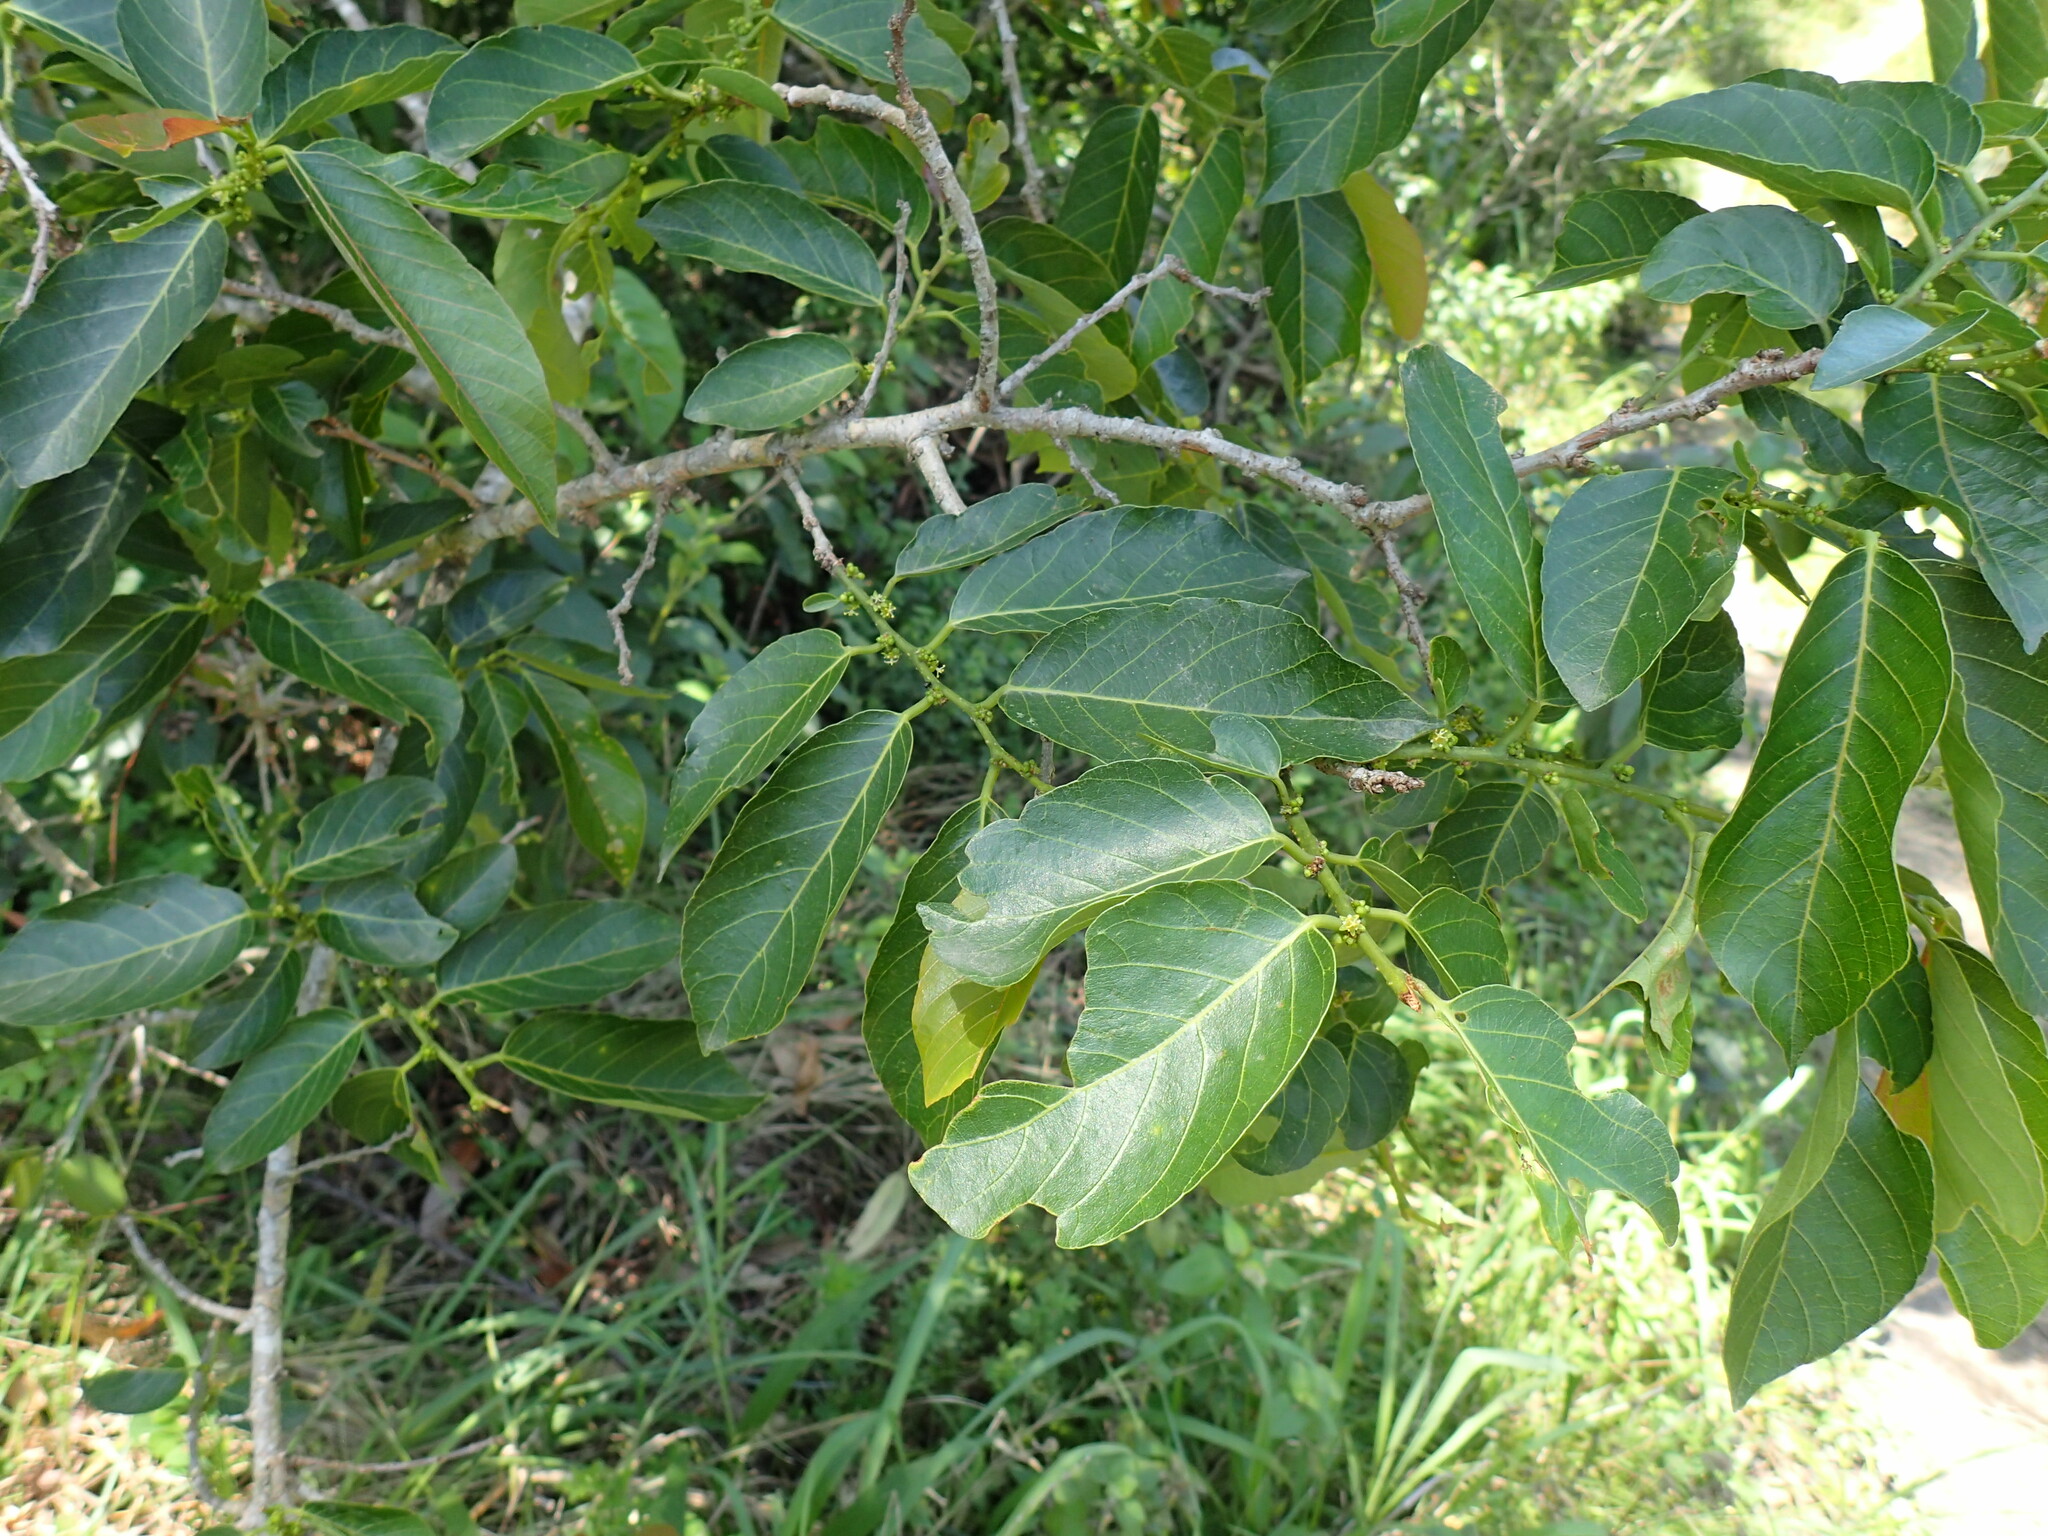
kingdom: Plantae
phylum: Tracheophyta
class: Magnoliopsida
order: Malpighiales
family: Phyllanthaceae
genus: Bridelia
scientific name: Bridelia micrantha
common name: Bridelia
